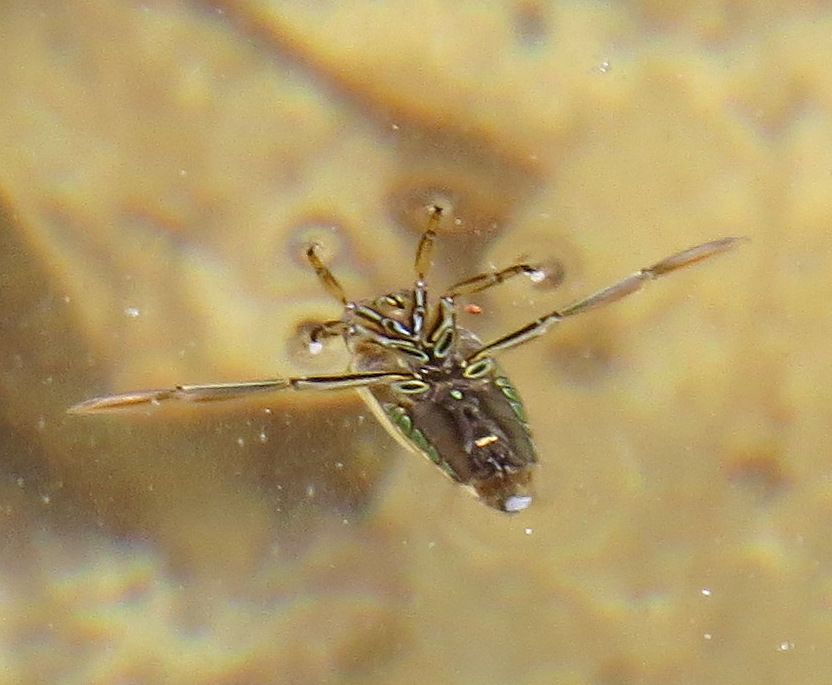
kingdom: Animalia
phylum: Arthropoda
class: Insecta
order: Hemiptera
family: Notonectidae
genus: Notonecta
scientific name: Notonecta
